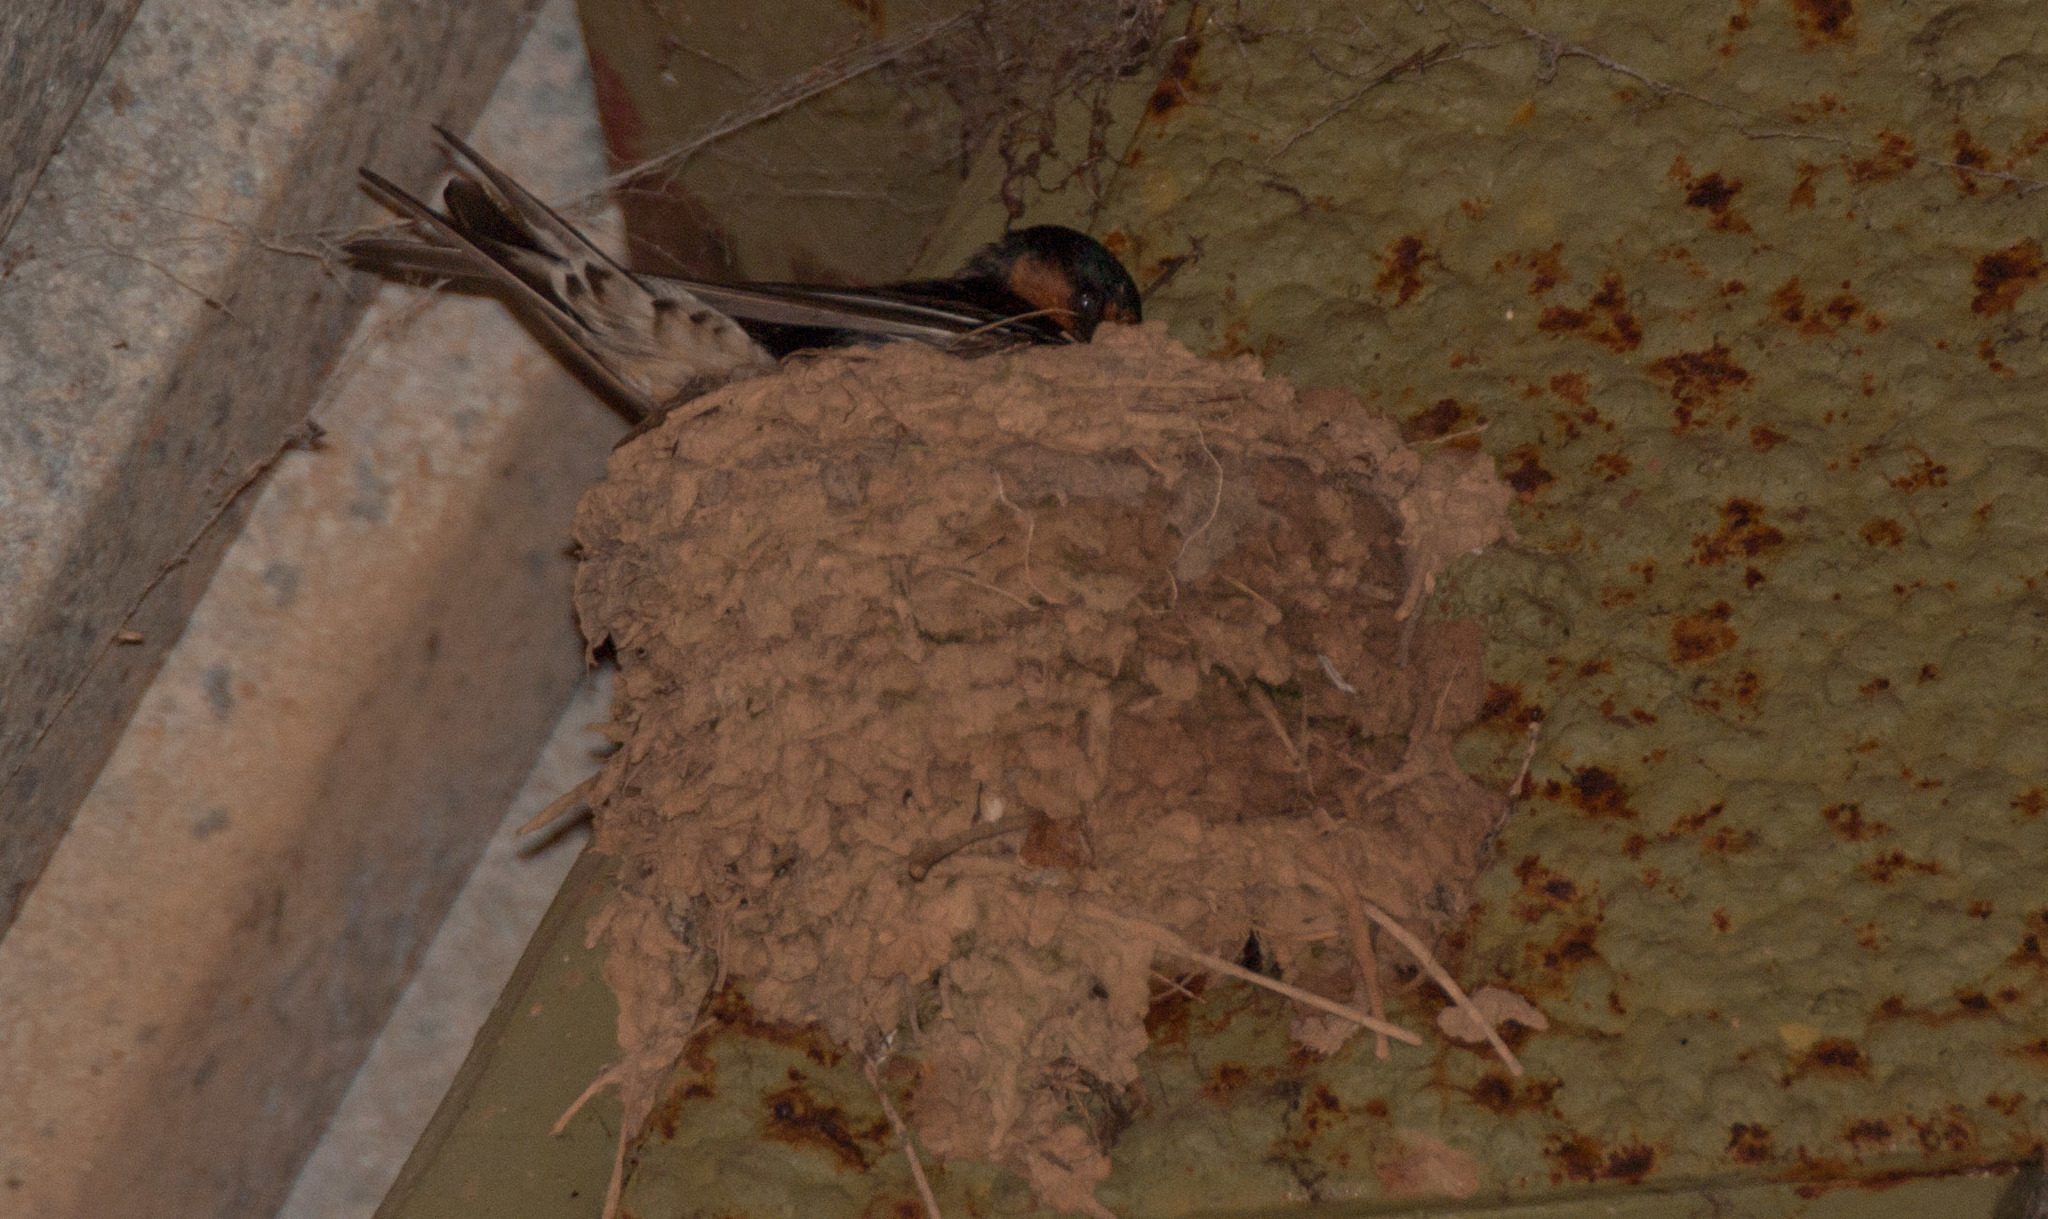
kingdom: Animalia
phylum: Chordata
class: Aves
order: Passeriformes
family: Hirundinidae
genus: Hirundo
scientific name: Hirundo neoxena
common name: Welcome swallow
